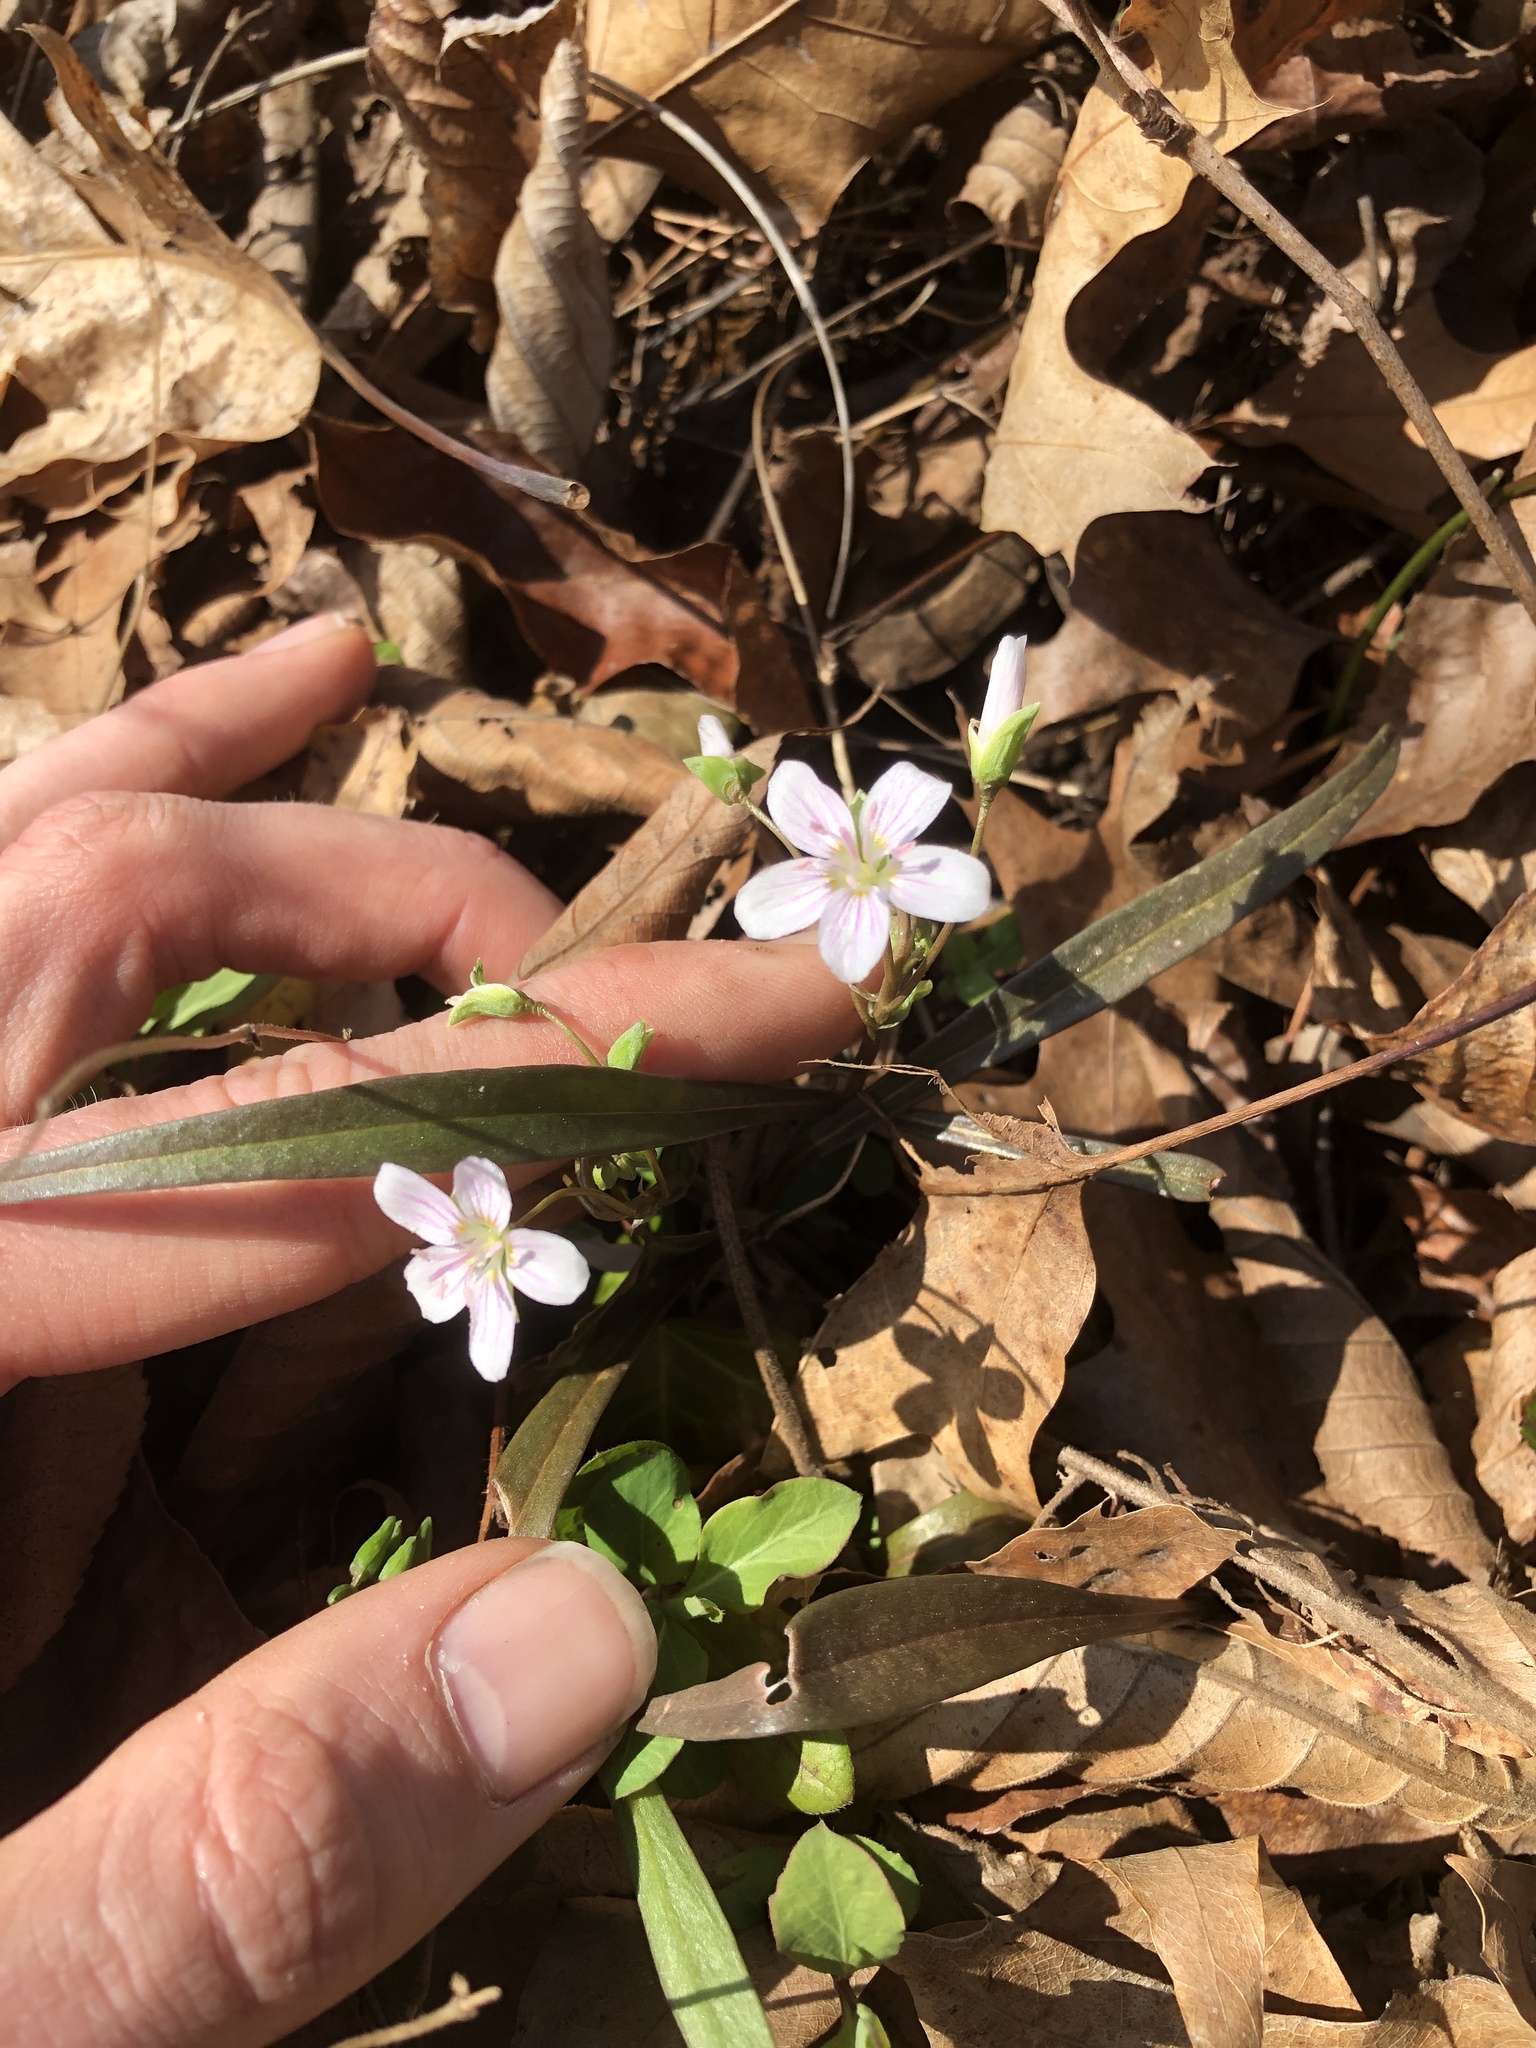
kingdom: Plantae
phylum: Tracheophyta
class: Magnoliopsida
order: Caryophyllales
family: Montiaceae
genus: Claytonia
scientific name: Claytonia virginica
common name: Virginia springbeauty
